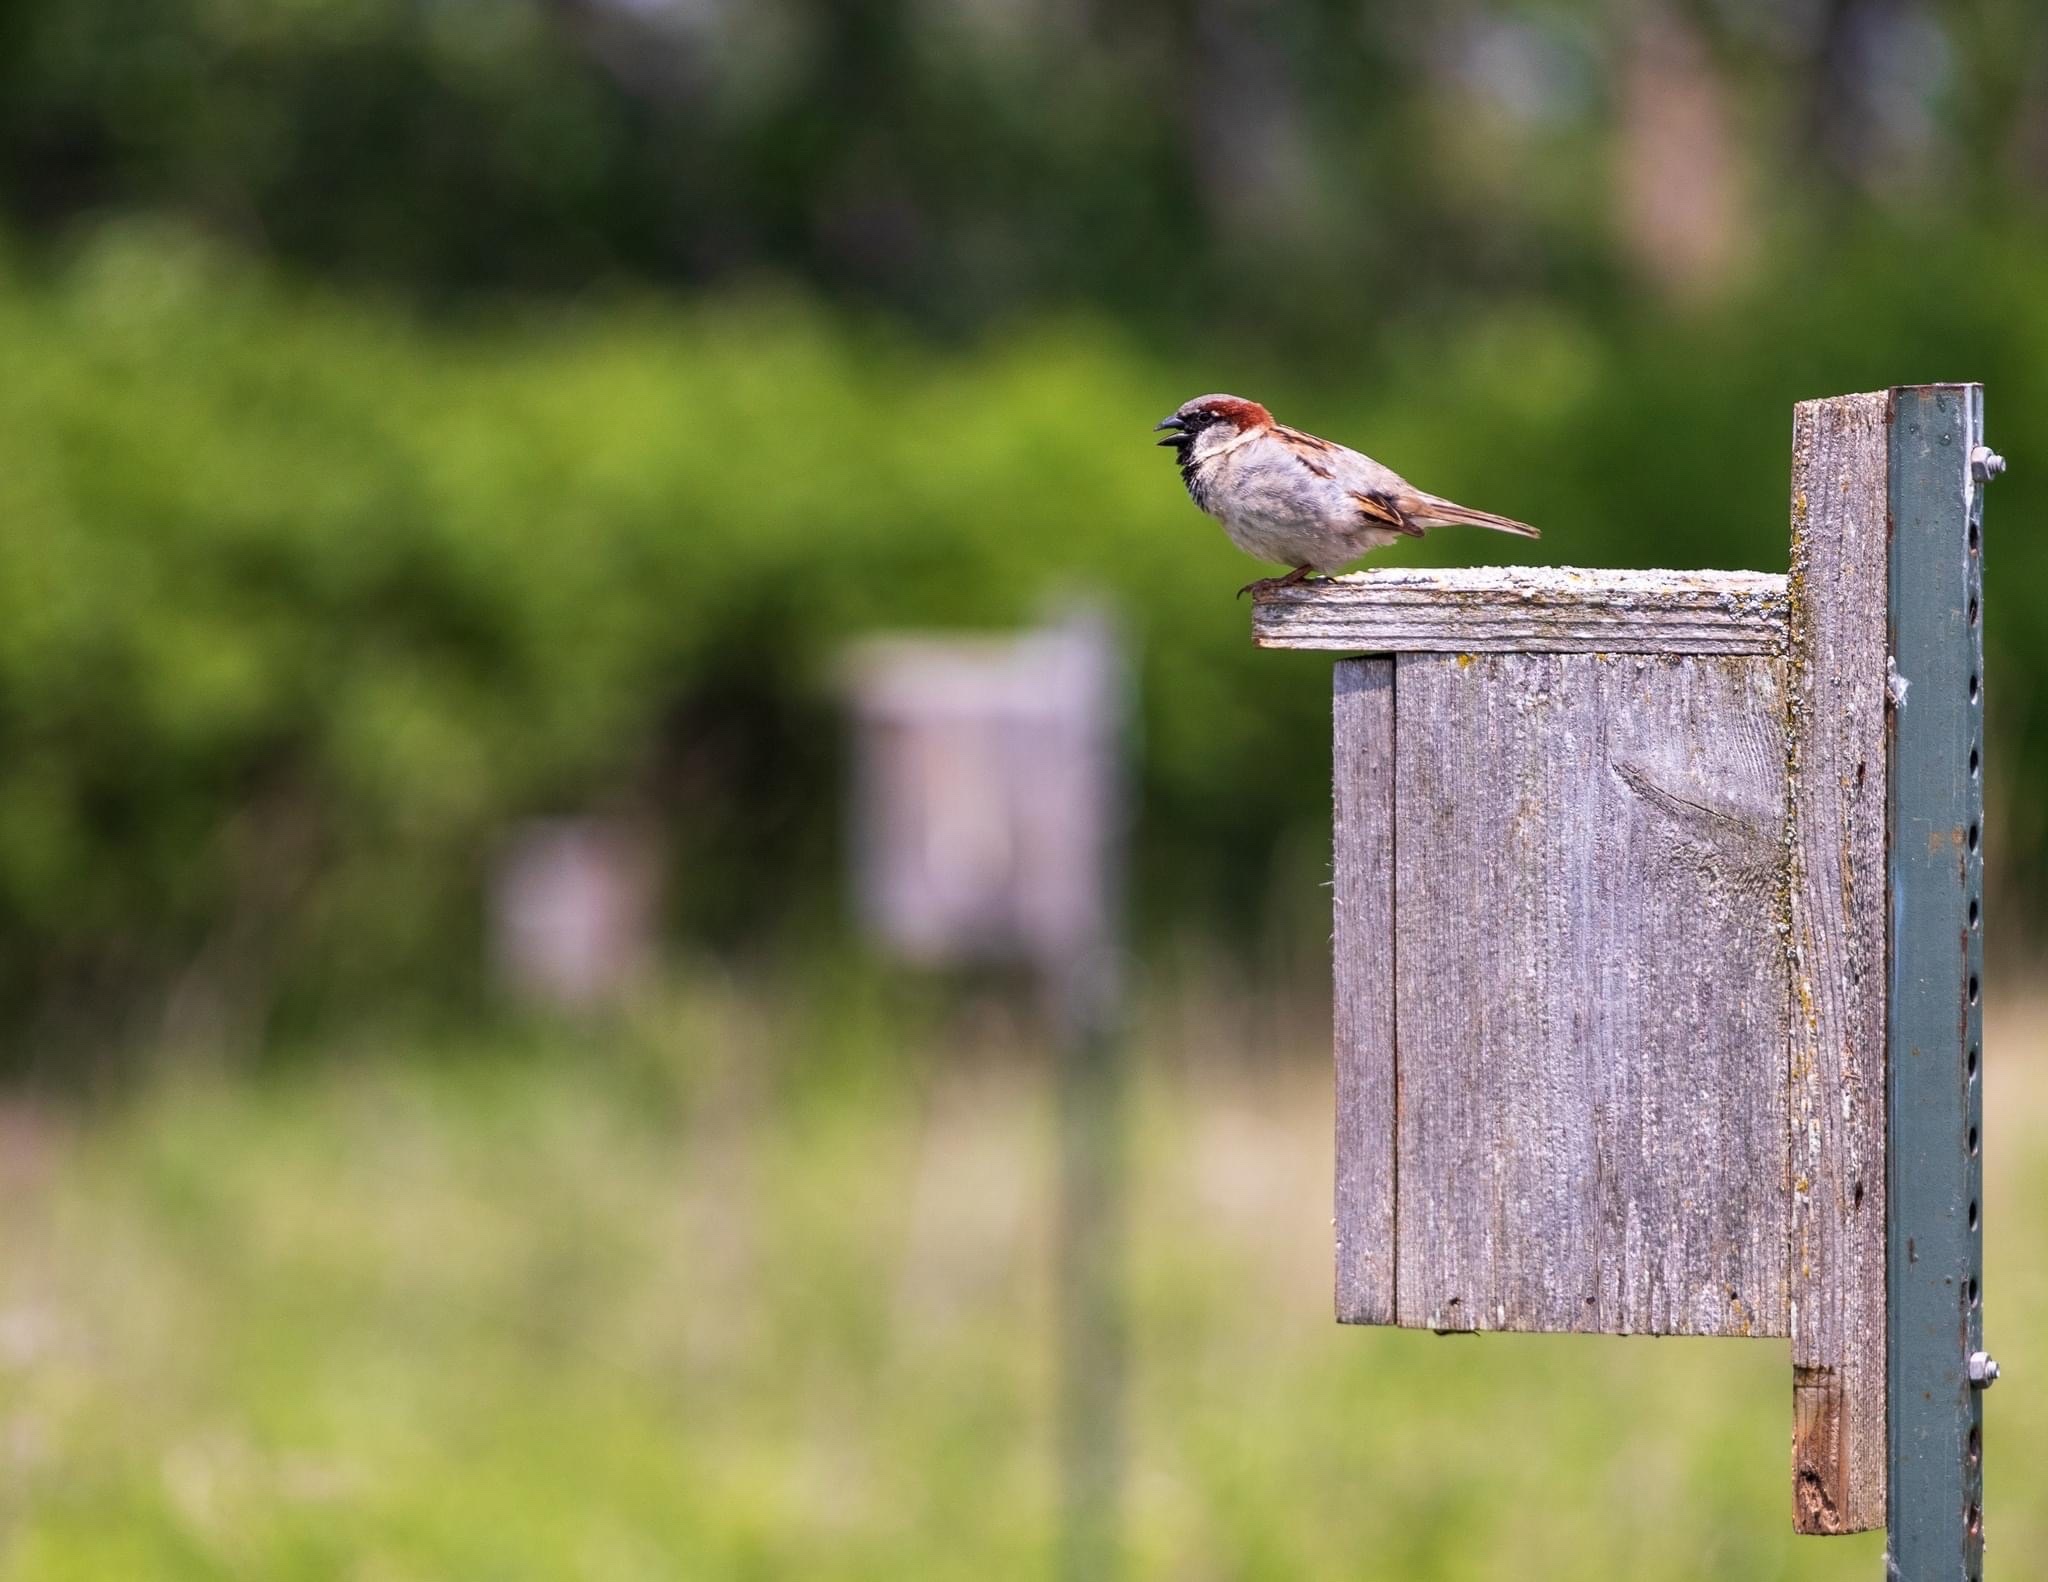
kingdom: Animalia
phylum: Chordata
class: Aves
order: Passeriformes
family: Passeridae
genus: Passer
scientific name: Passer domesticus
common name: House sparrow
